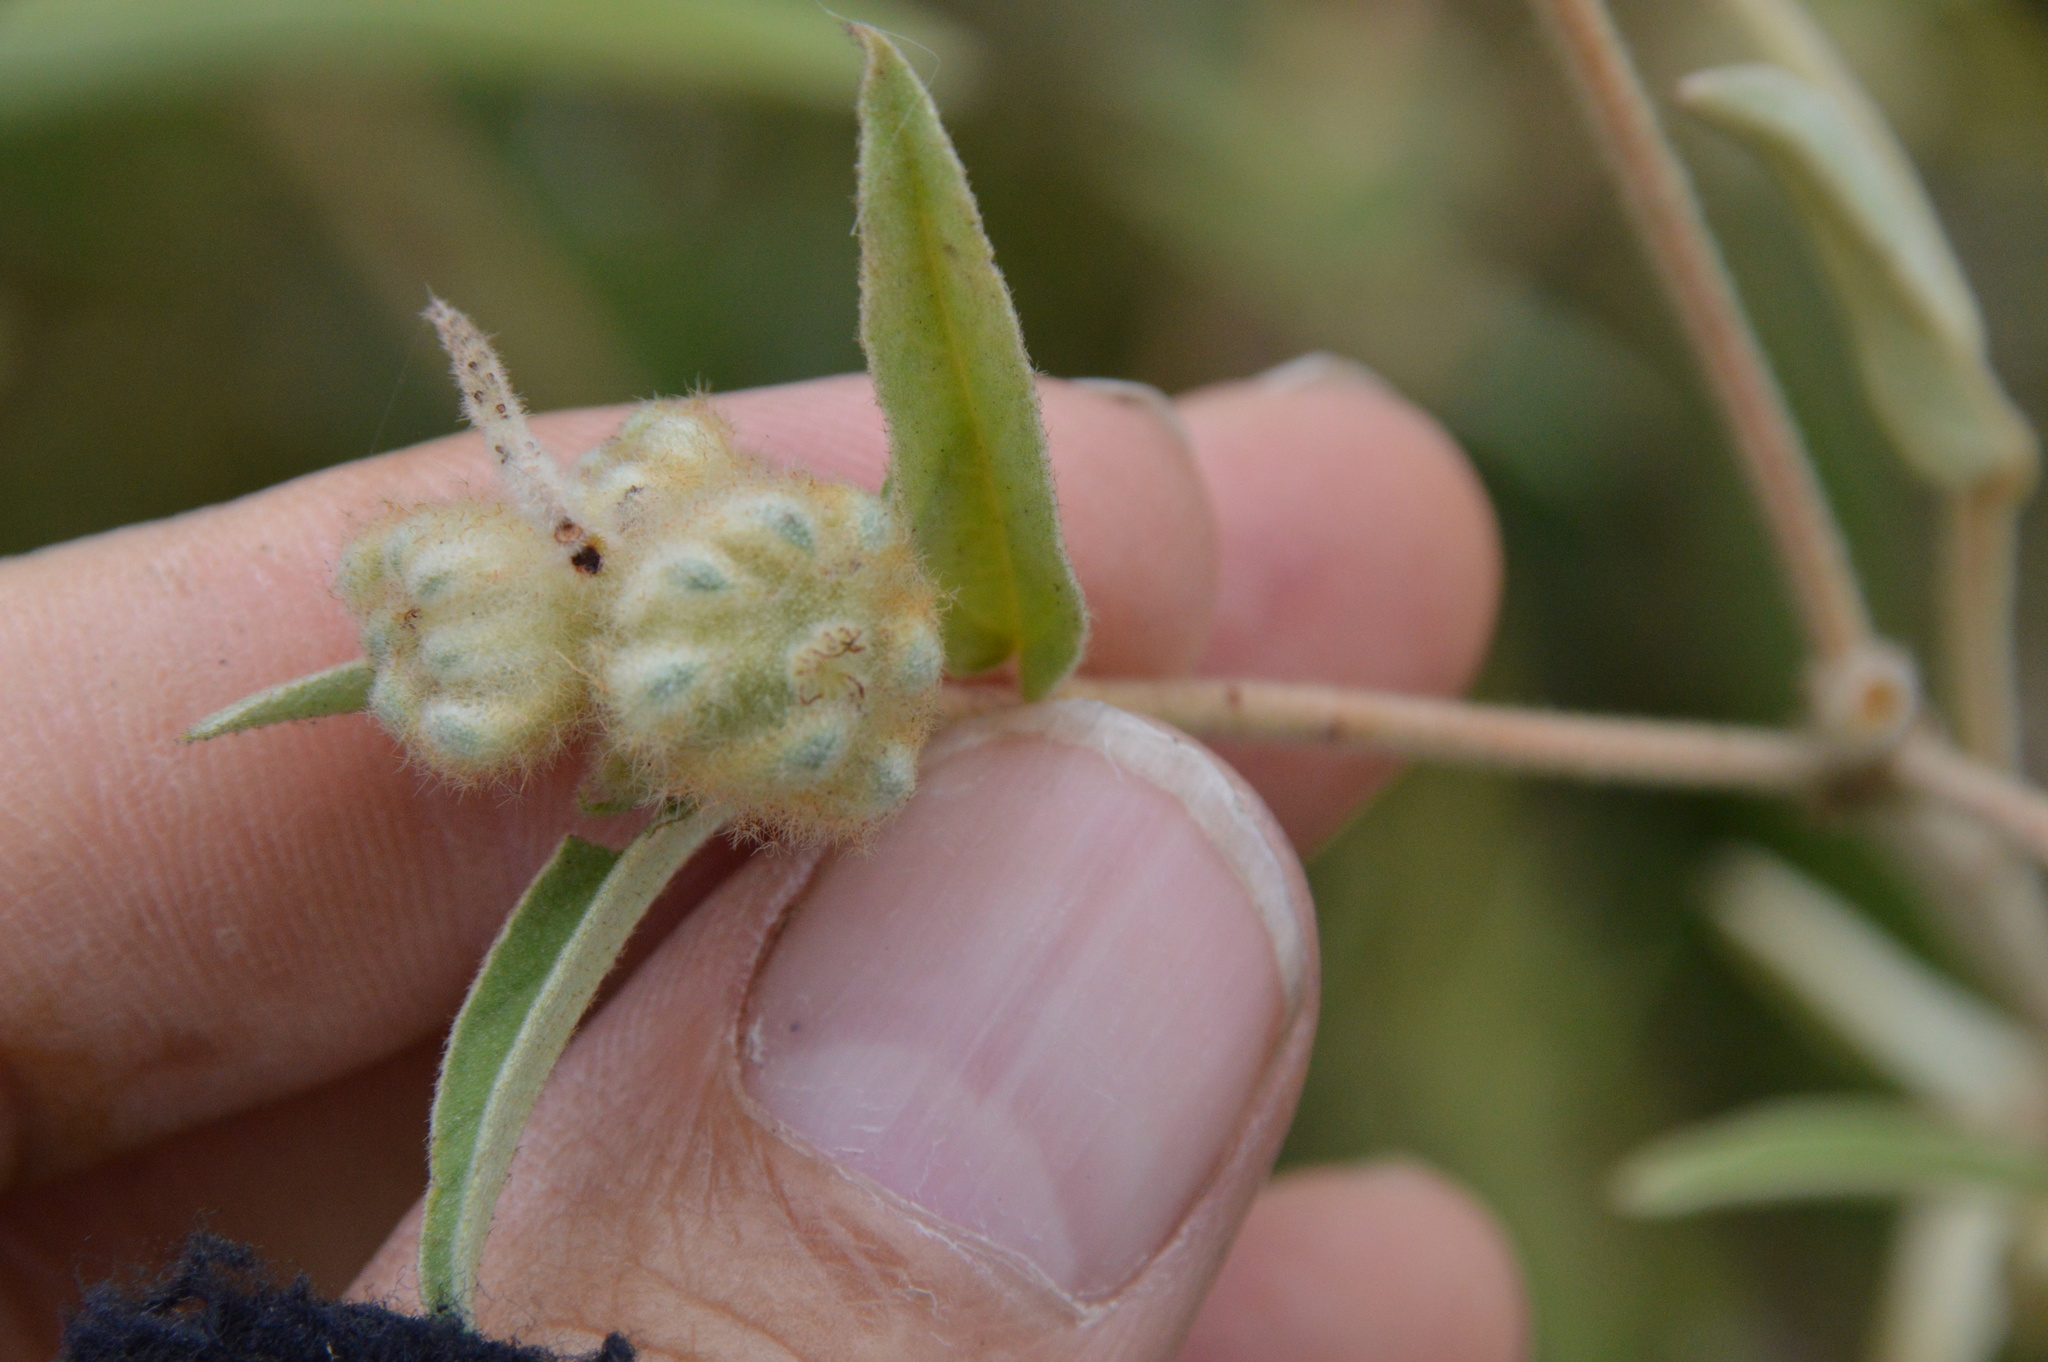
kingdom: Plantae
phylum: Tracheophyta
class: Magnoliopsida
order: Malpighiales
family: Euphorbiaceae
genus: Croton
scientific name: Croton lindheimeri
